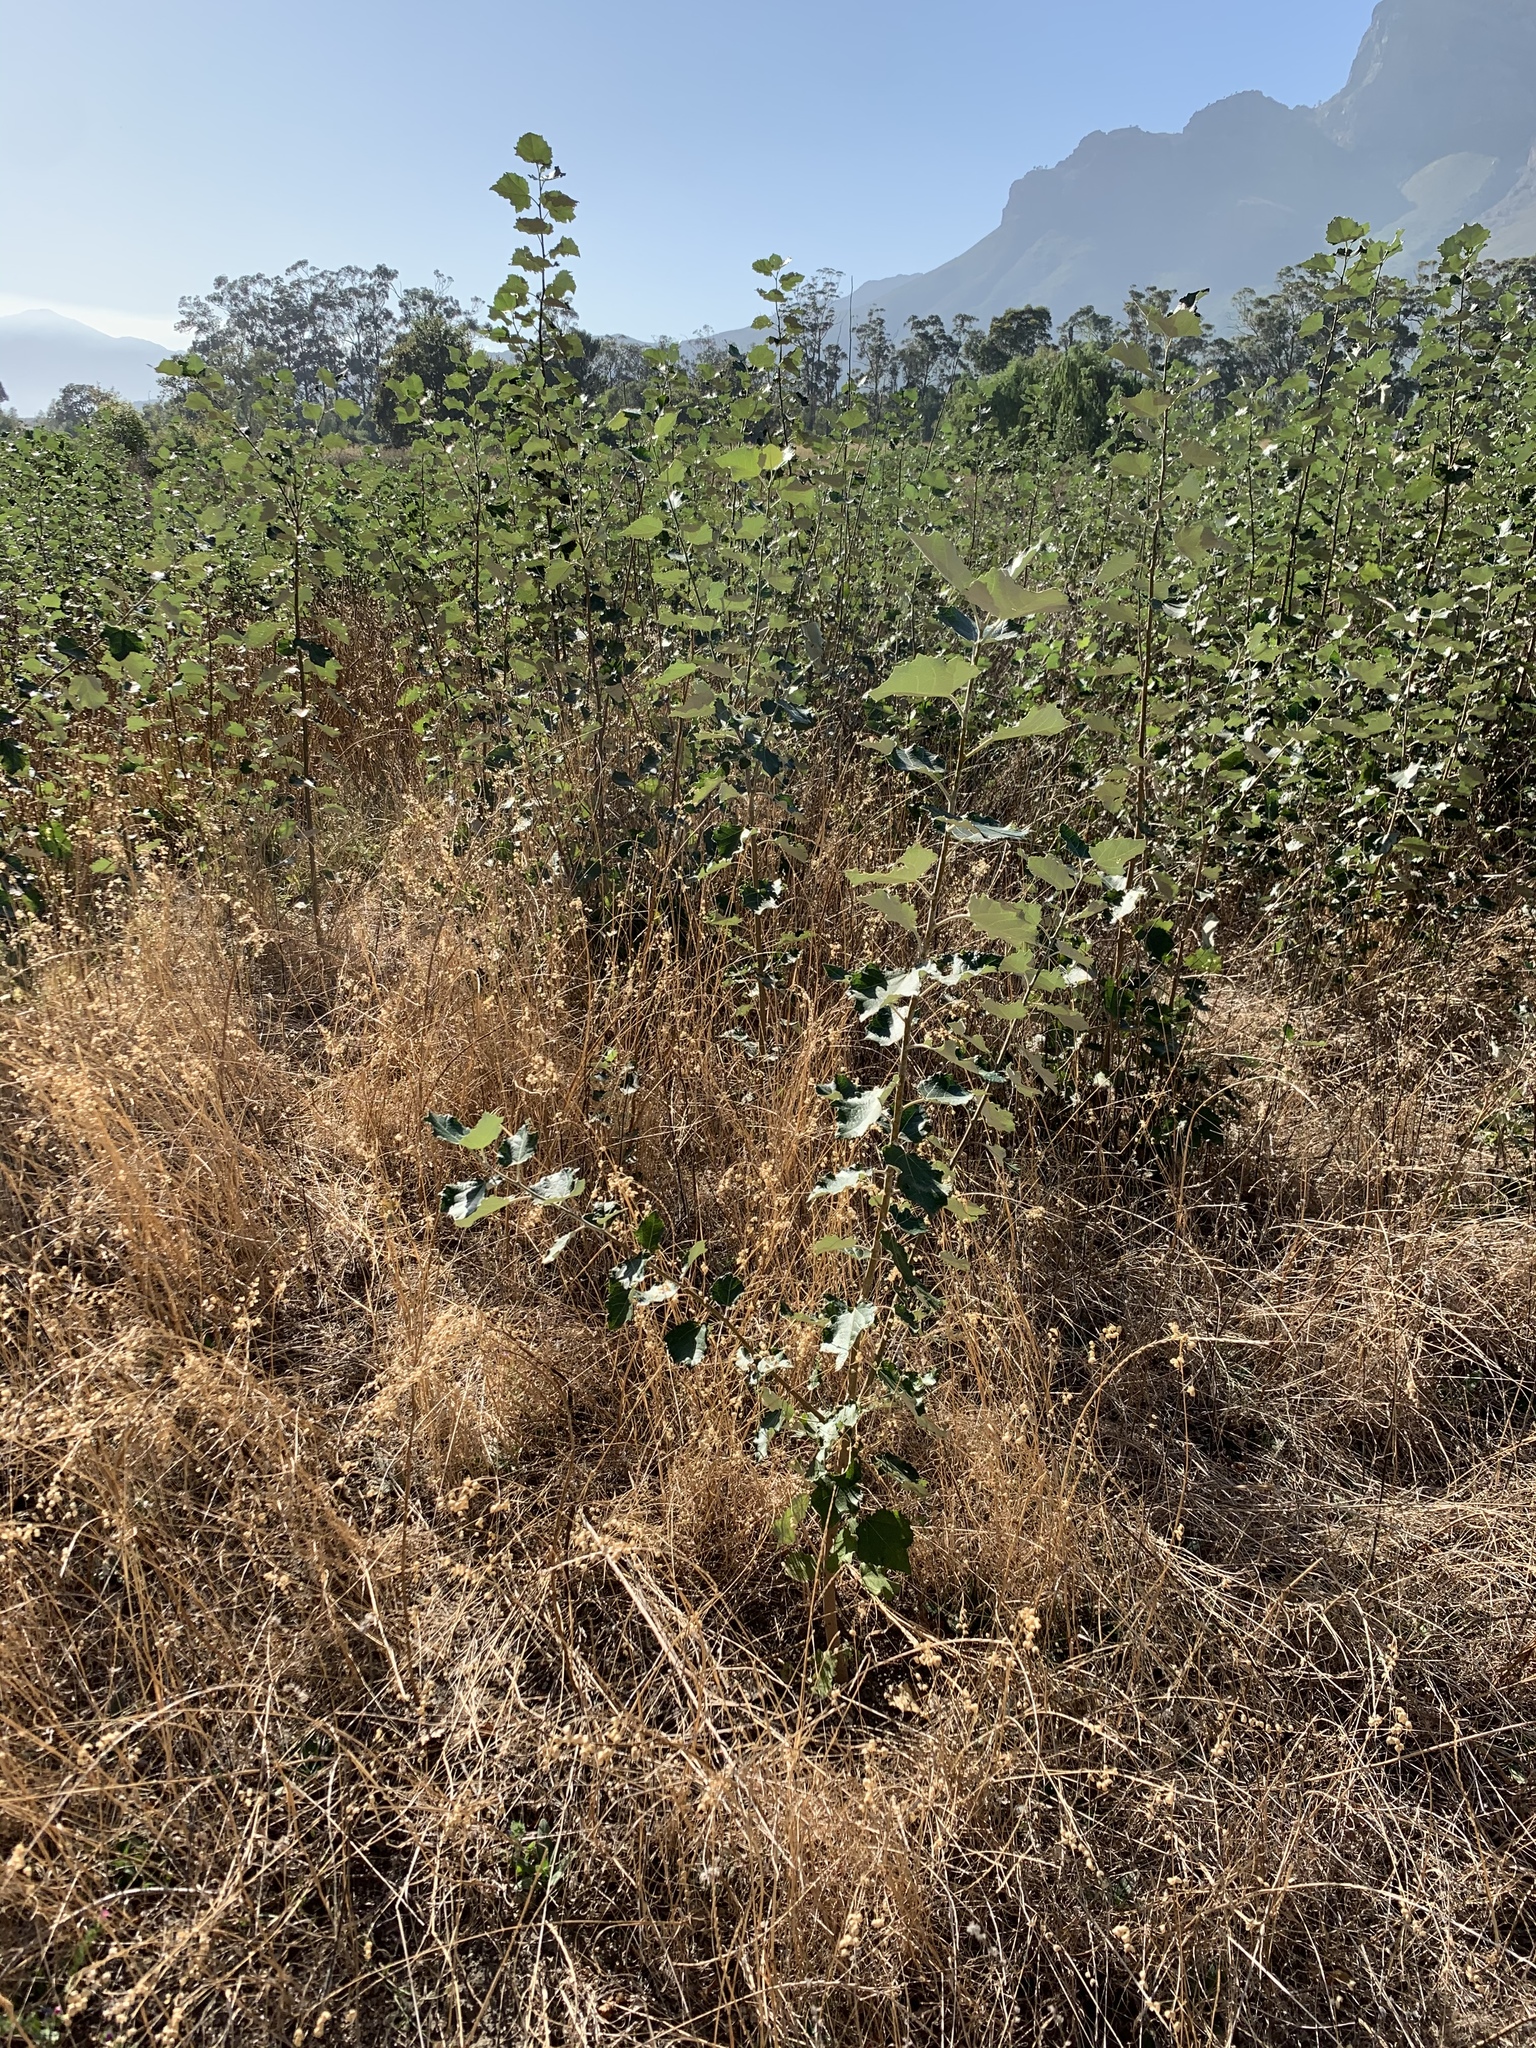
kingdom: Plantae
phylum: Tracheophyta
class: Magnoliopsida
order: Malpighiales
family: Salicaceae
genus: Populus
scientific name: Populus canescens
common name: Gray poplar
